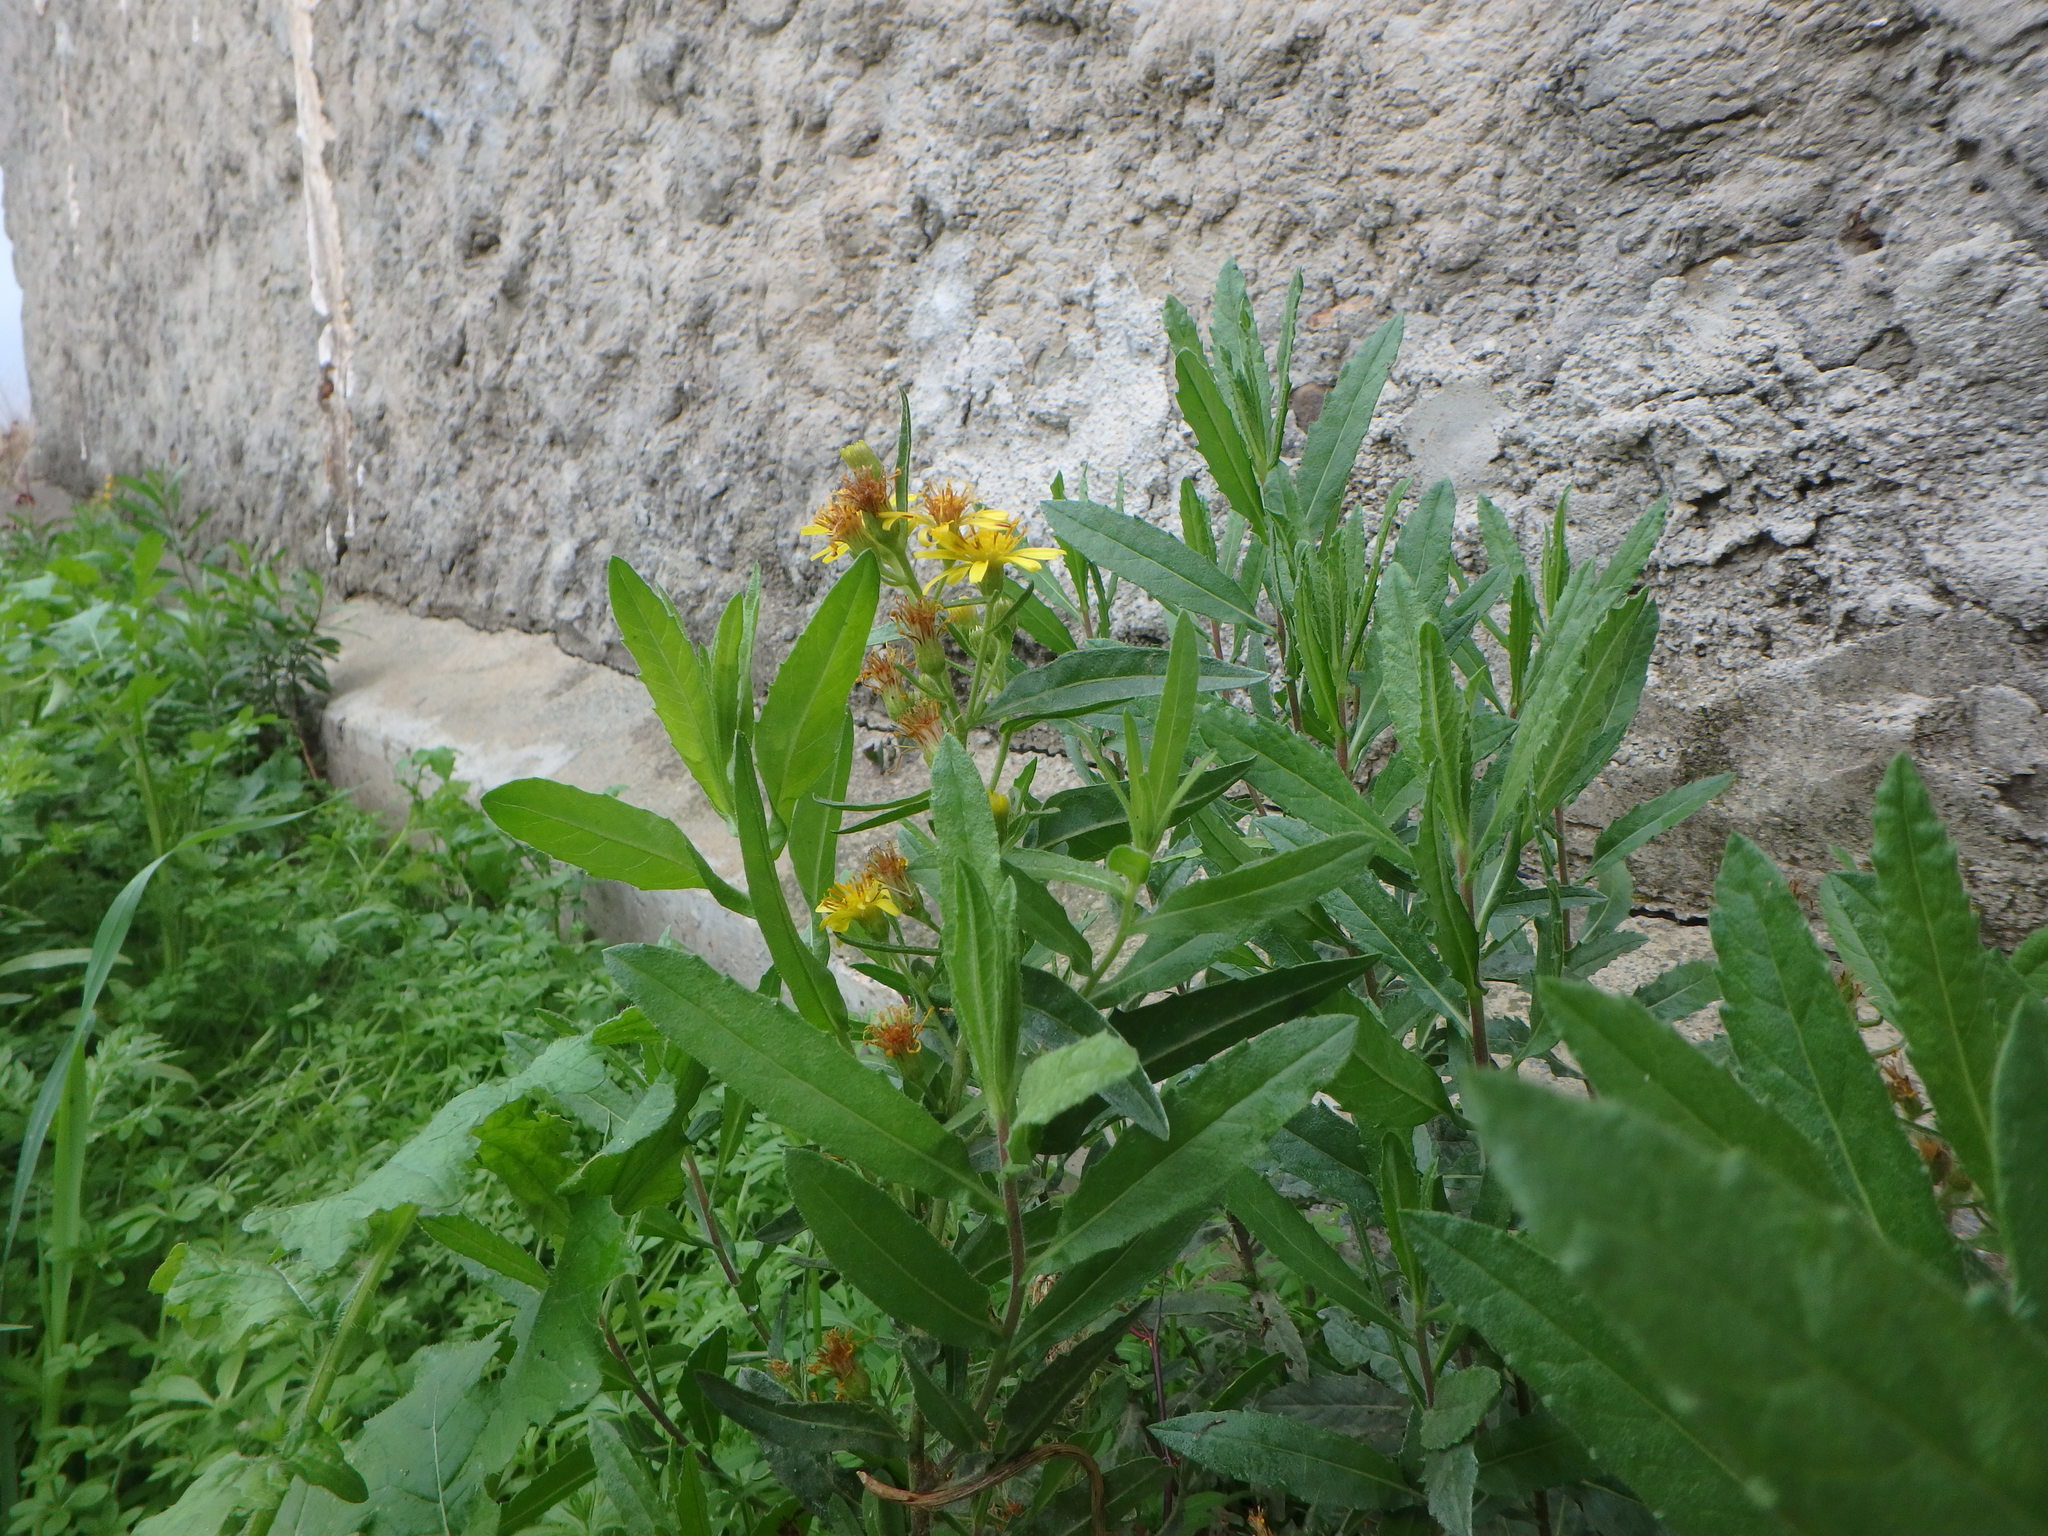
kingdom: Plantae
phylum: Tracheophyta
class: Magnoliopsida
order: Asterales
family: Asteraceae
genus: Dittrichia
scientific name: Dittrichia viscosa
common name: Woody fleabane
